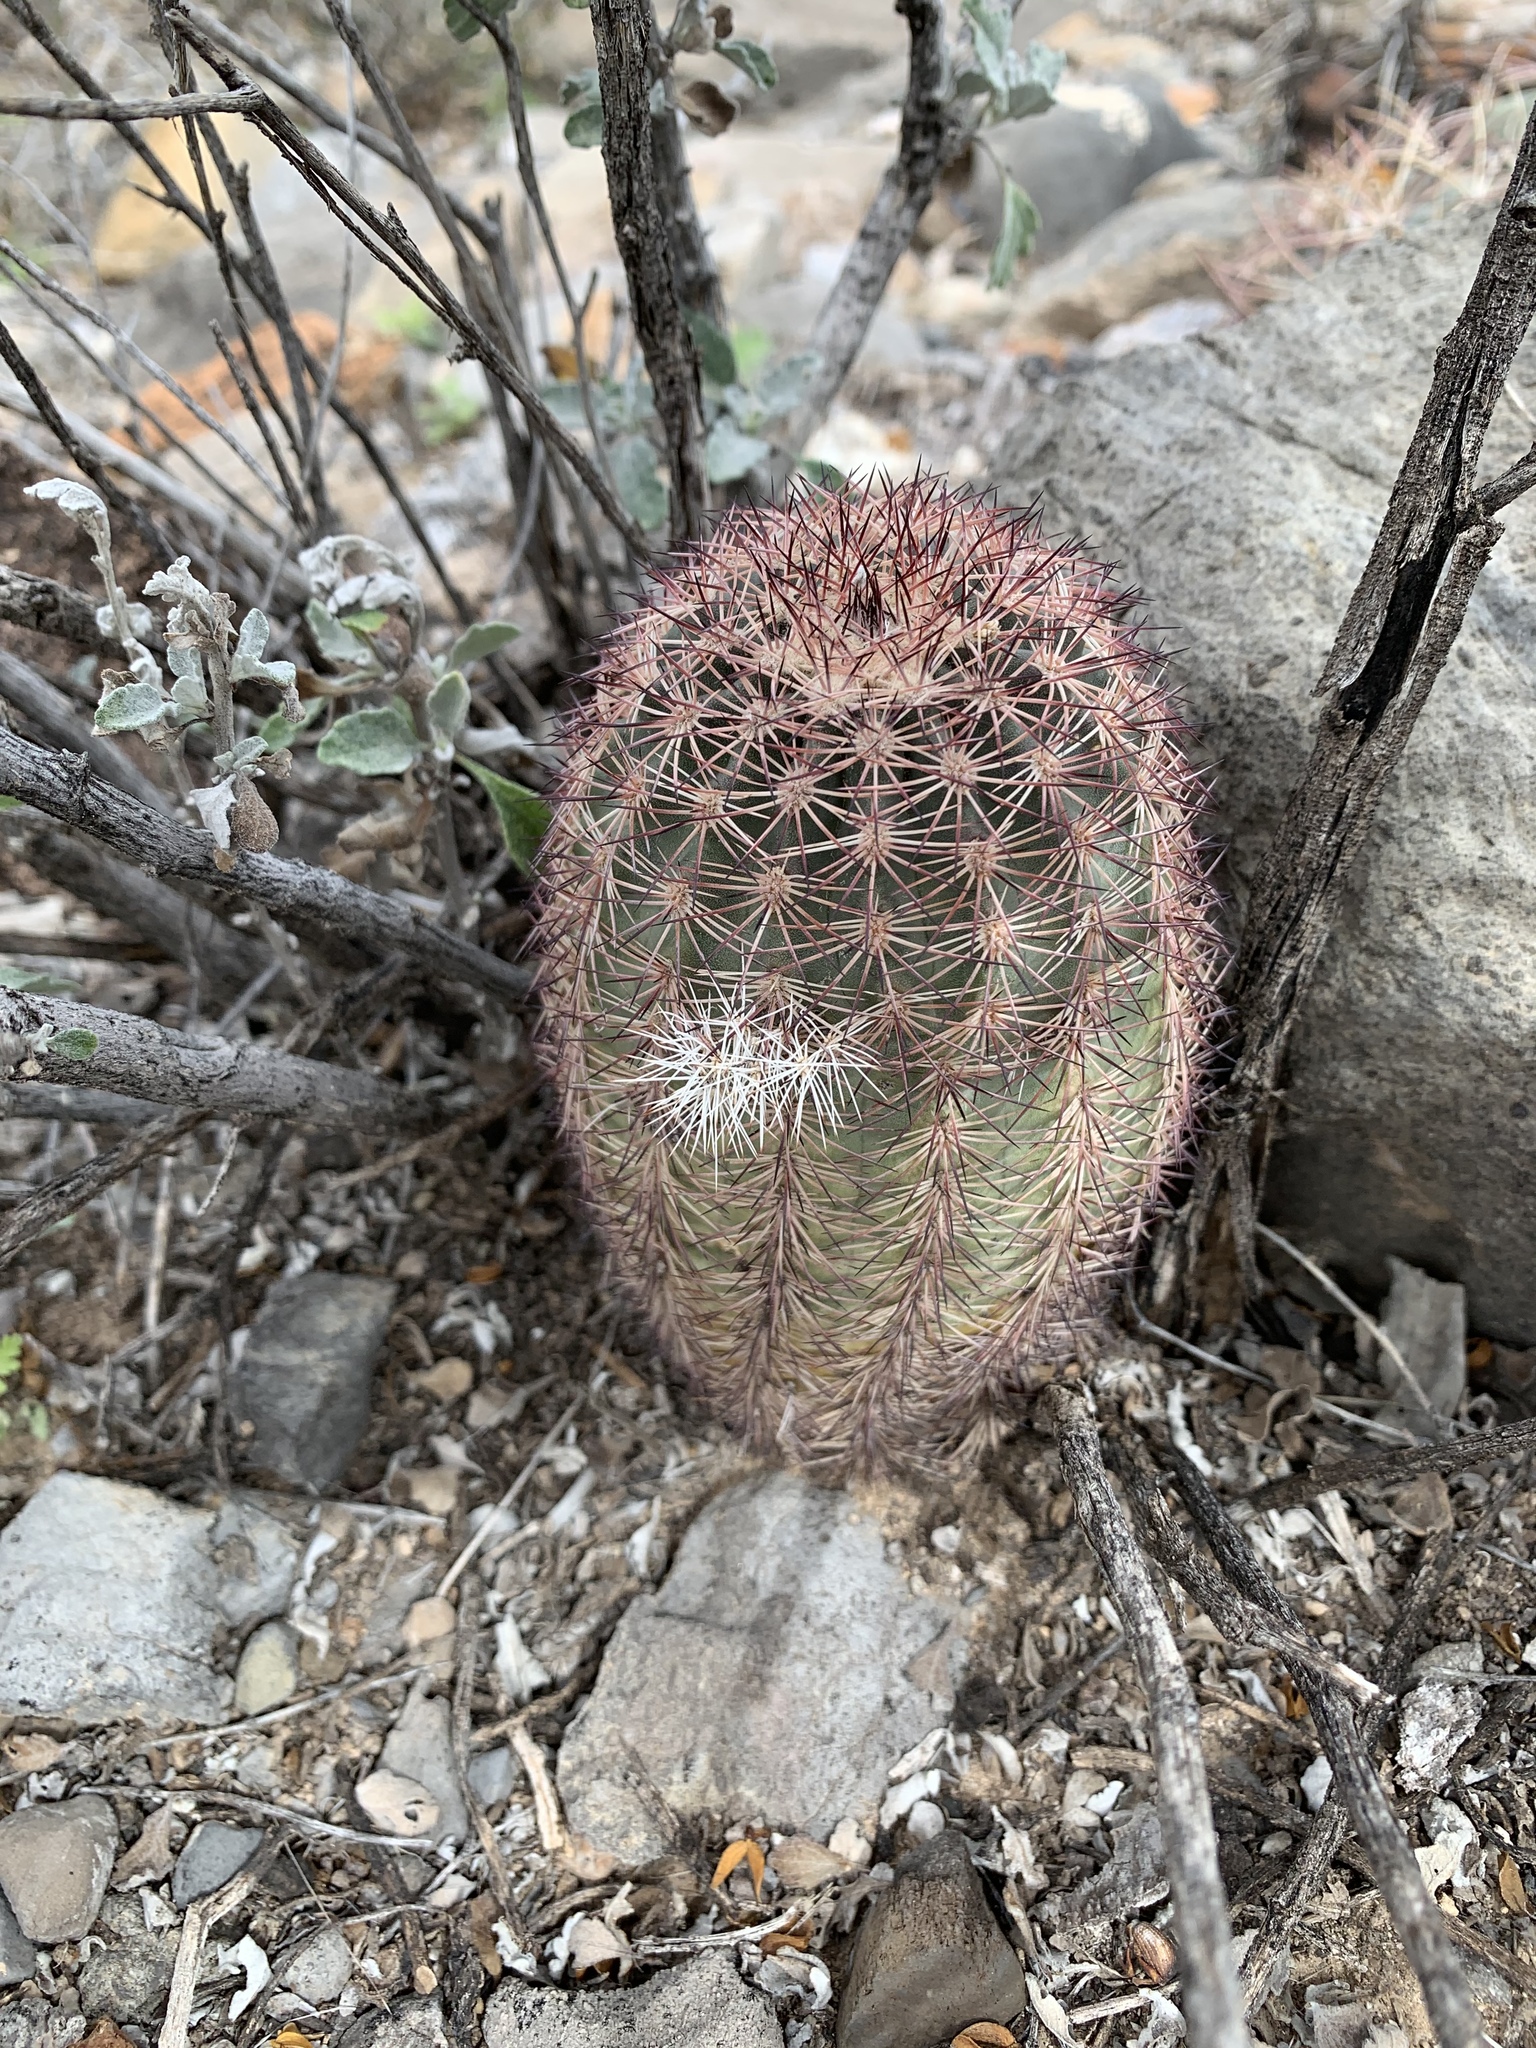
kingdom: Plantae
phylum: Tracheophyta
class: Magnoliopsida
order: Caryophyllales
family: Cactaceae
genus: Echinocereus
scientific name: Echinocereus dasyacanthus
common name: Spiny hedgehog cactus
